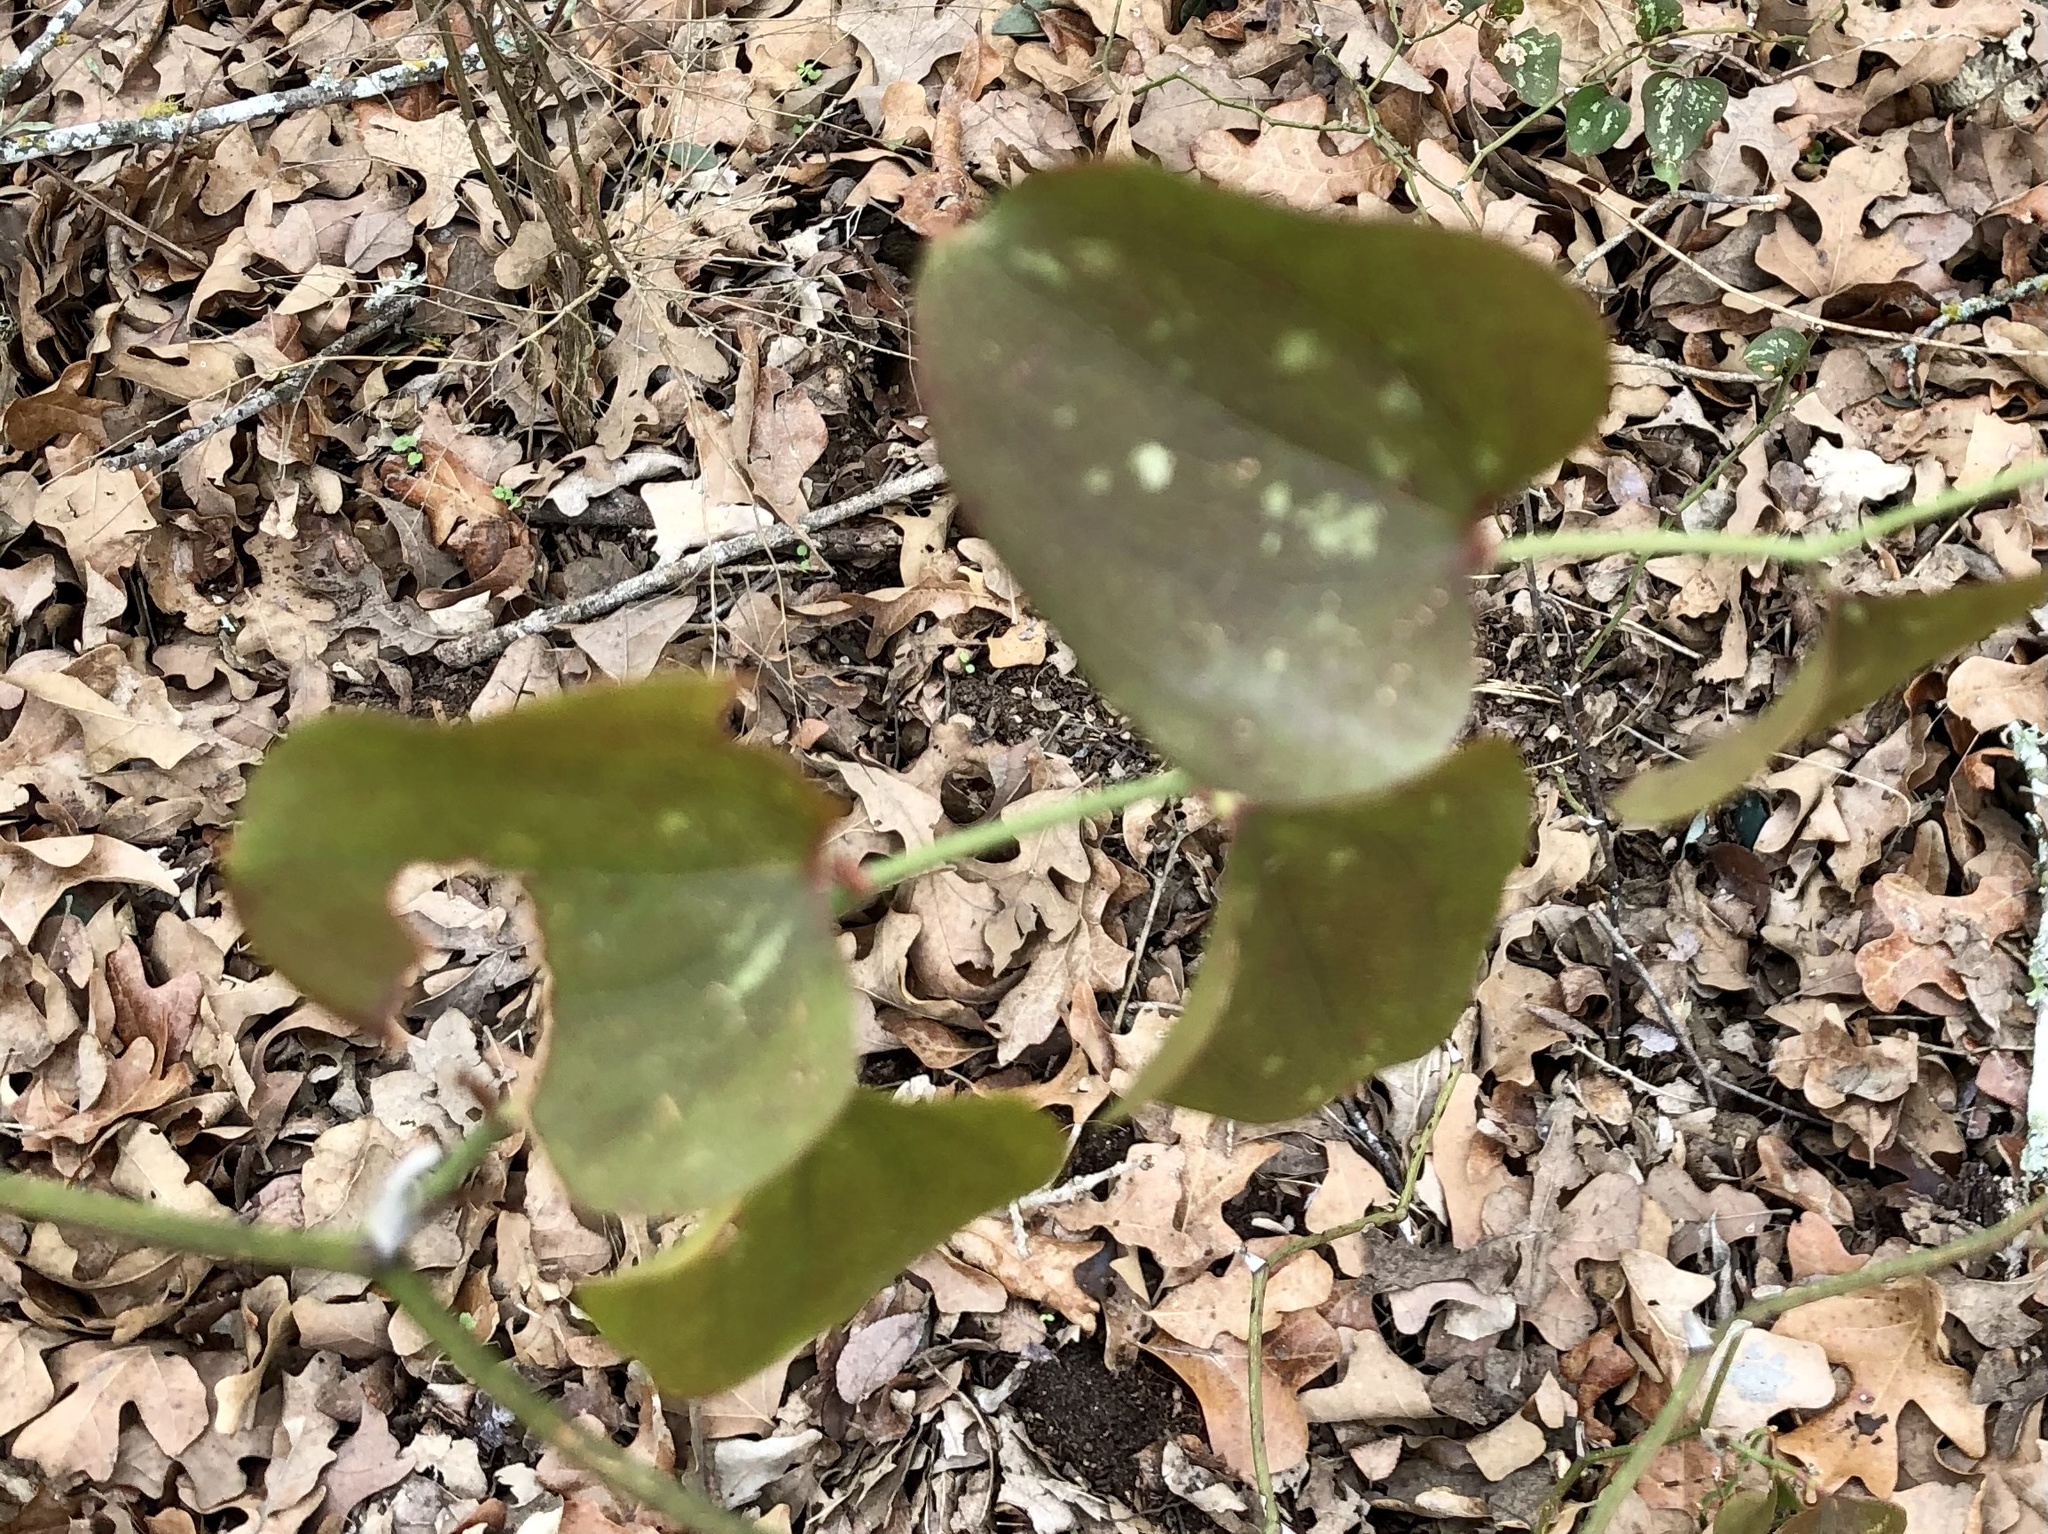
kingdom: Plantae
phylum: Tracheophyta
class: Liliopsida
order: Liliales
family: Smilacaceae
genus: Smilax
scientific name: Smilax bona-nox
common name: Catbrier
